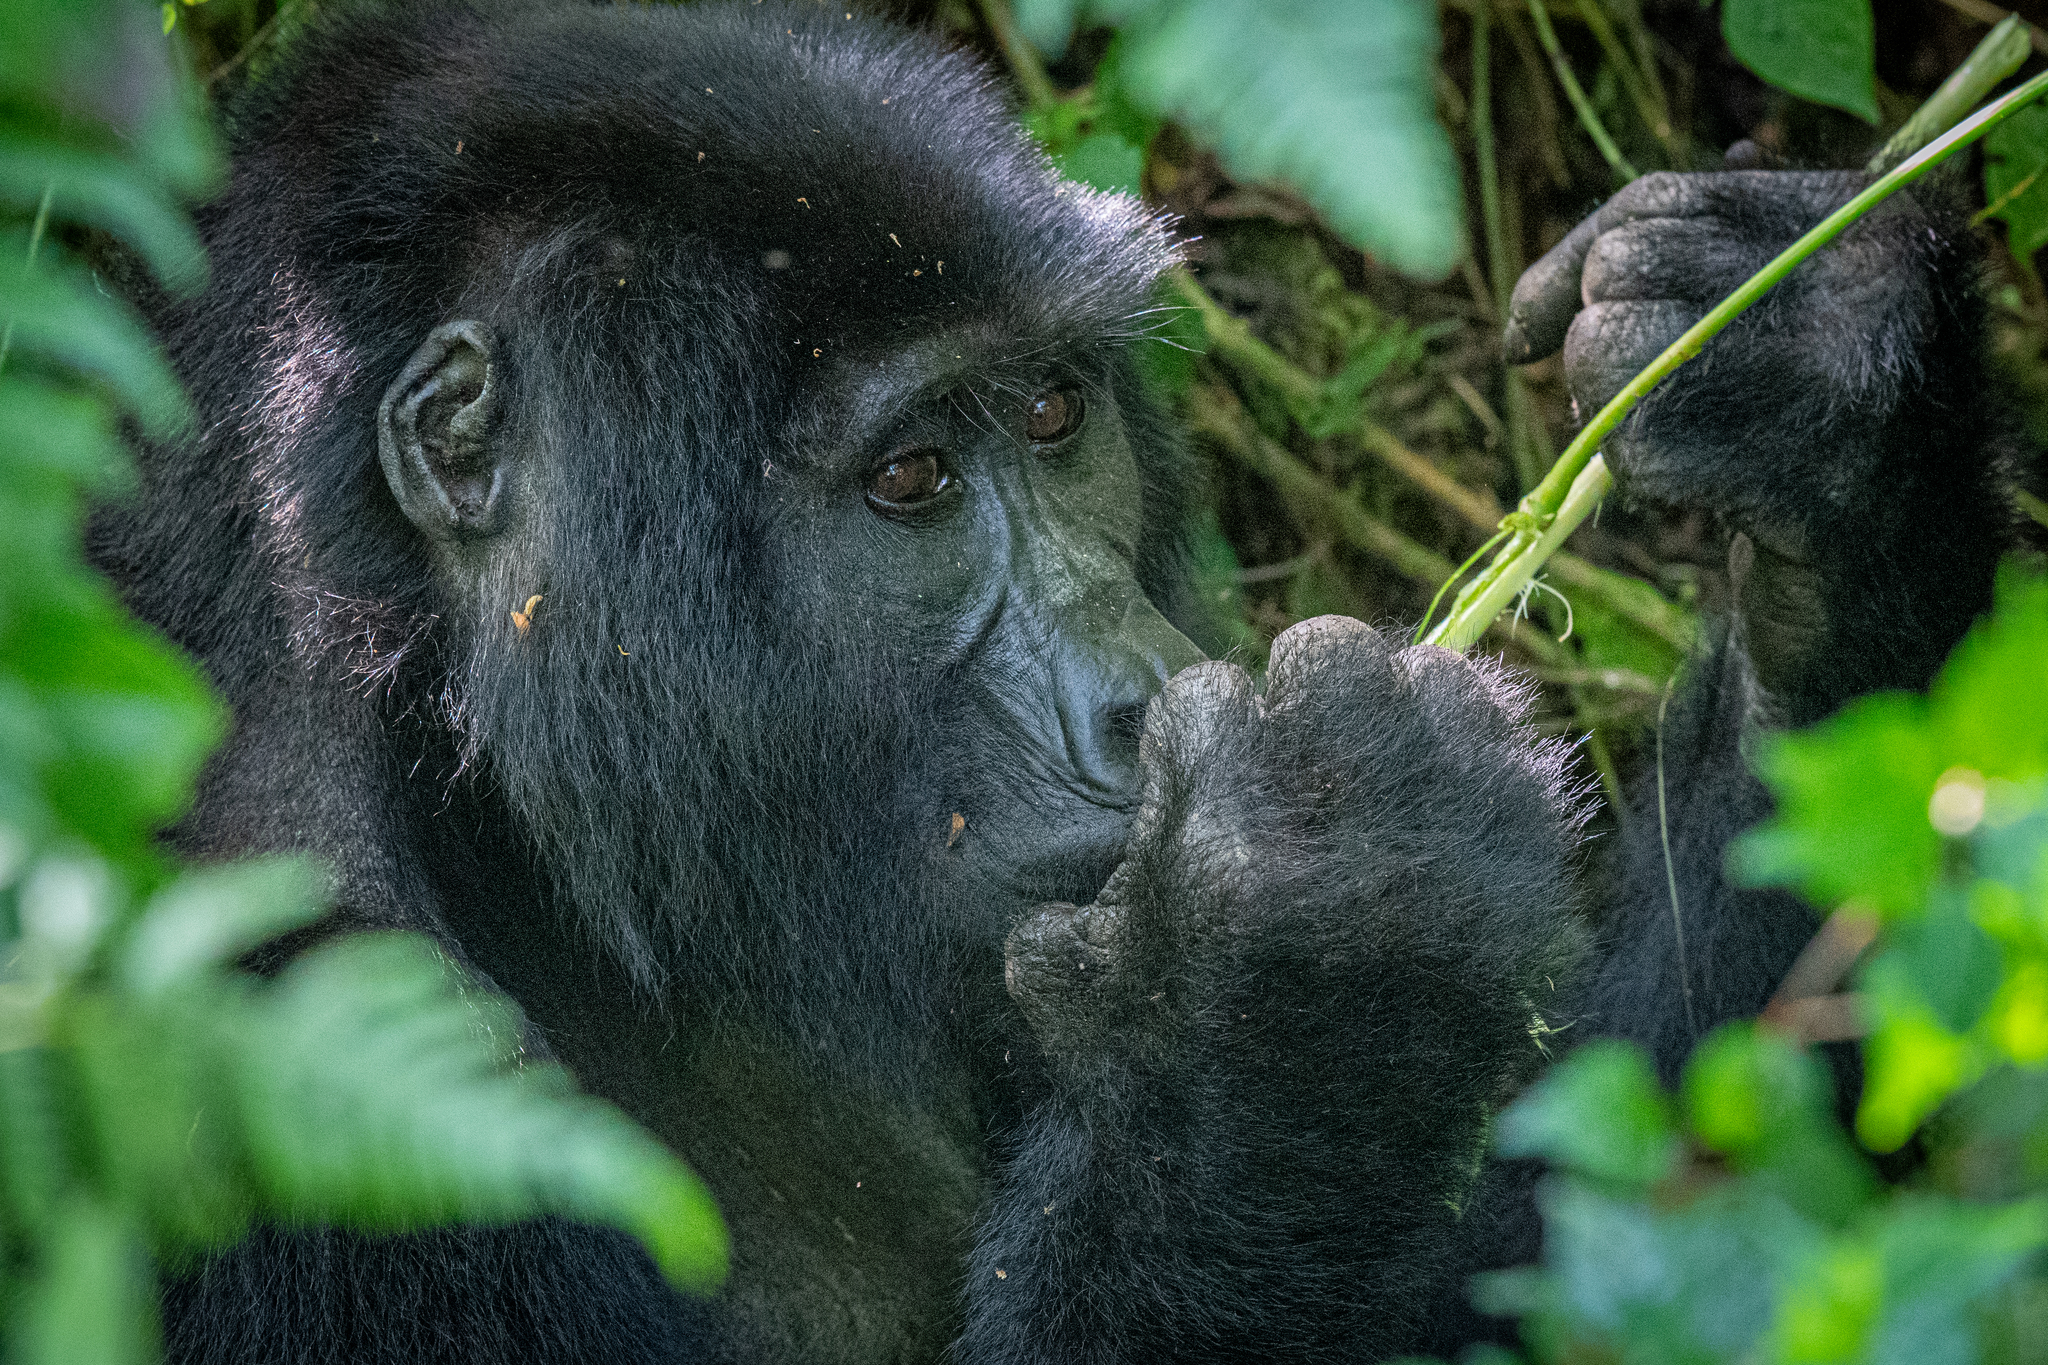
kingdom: Animalia
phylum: Chordata
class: Mammalia
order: Primates
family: Hominidae
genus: Gorilla
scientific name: Gorilla beringei
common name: Eastern gorilla
